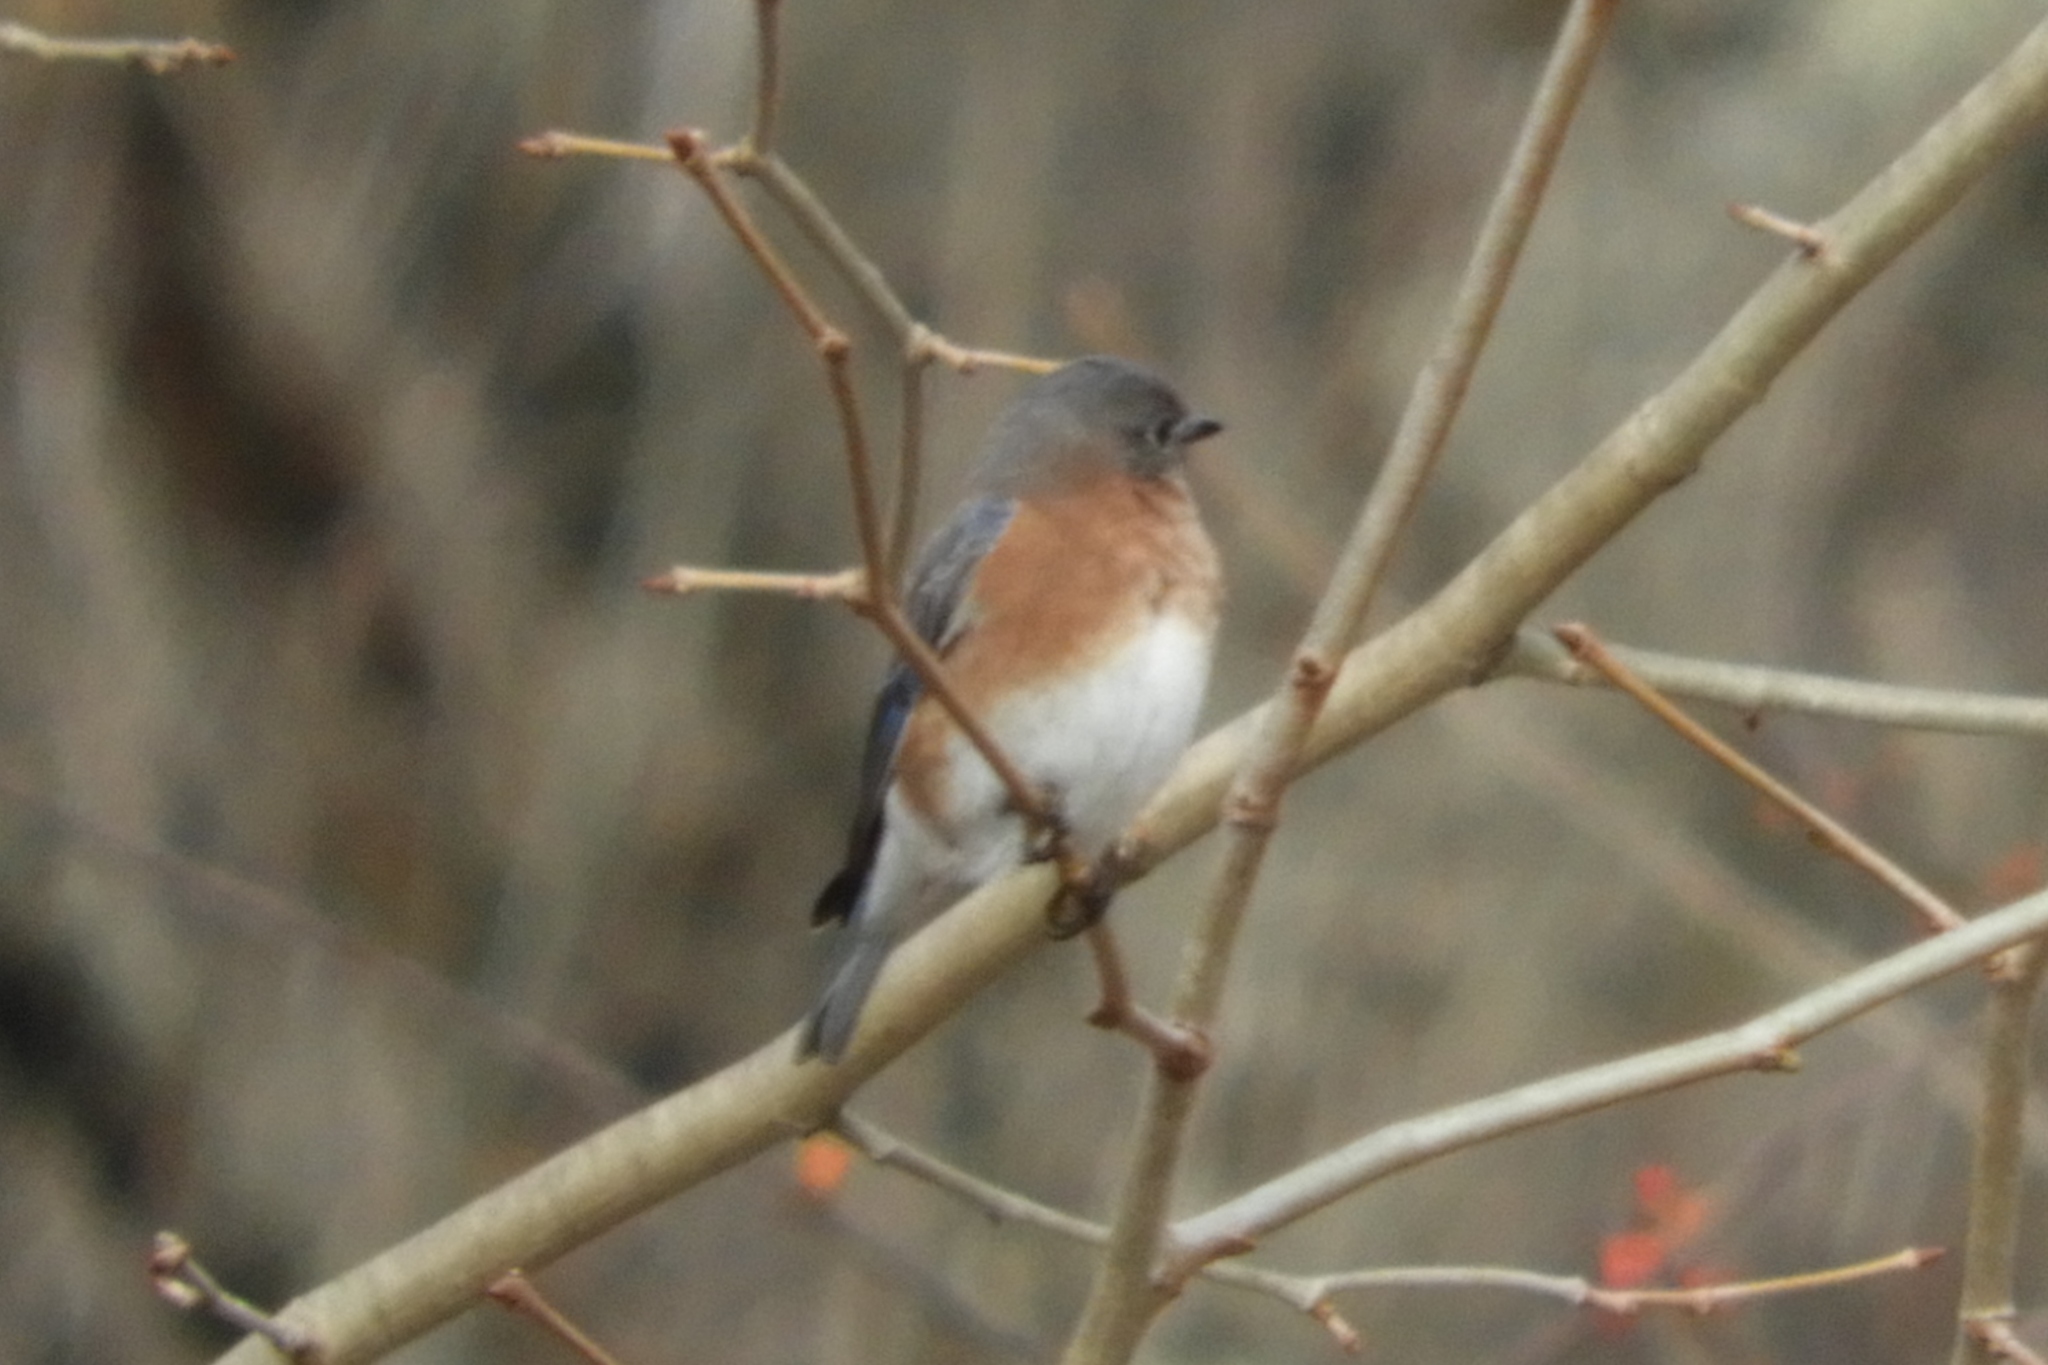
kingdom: Animalia
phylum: Chordata
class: Aves
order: Passeriformes
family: Turdidae
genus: Sialia
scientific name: Sialia sialis
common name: Eastern bluebird
